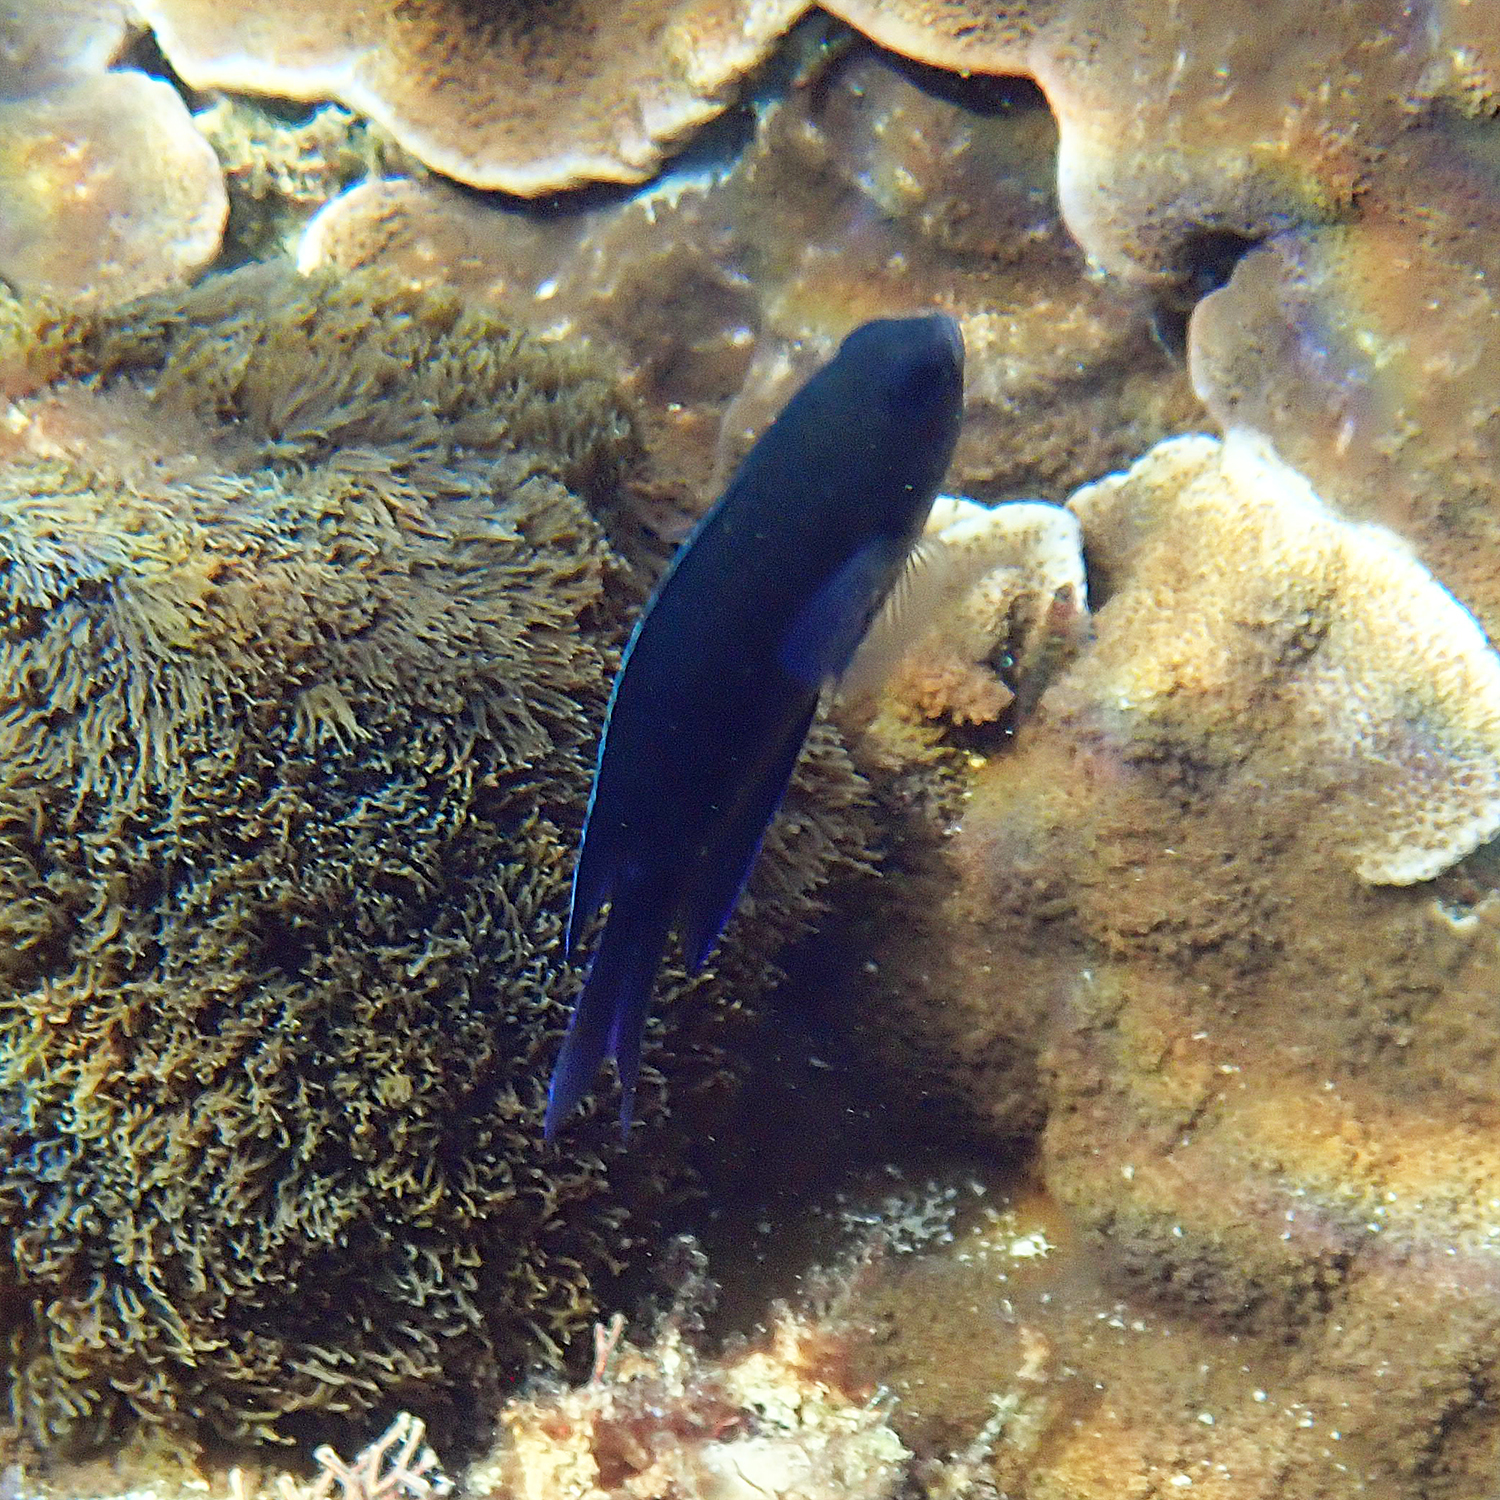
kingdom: Animalia
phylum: Chordata
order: Perciformes
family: Pomacentridae
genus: Chrysiptera
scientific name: Chrysiptera notialis
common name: Southern demoiselle
